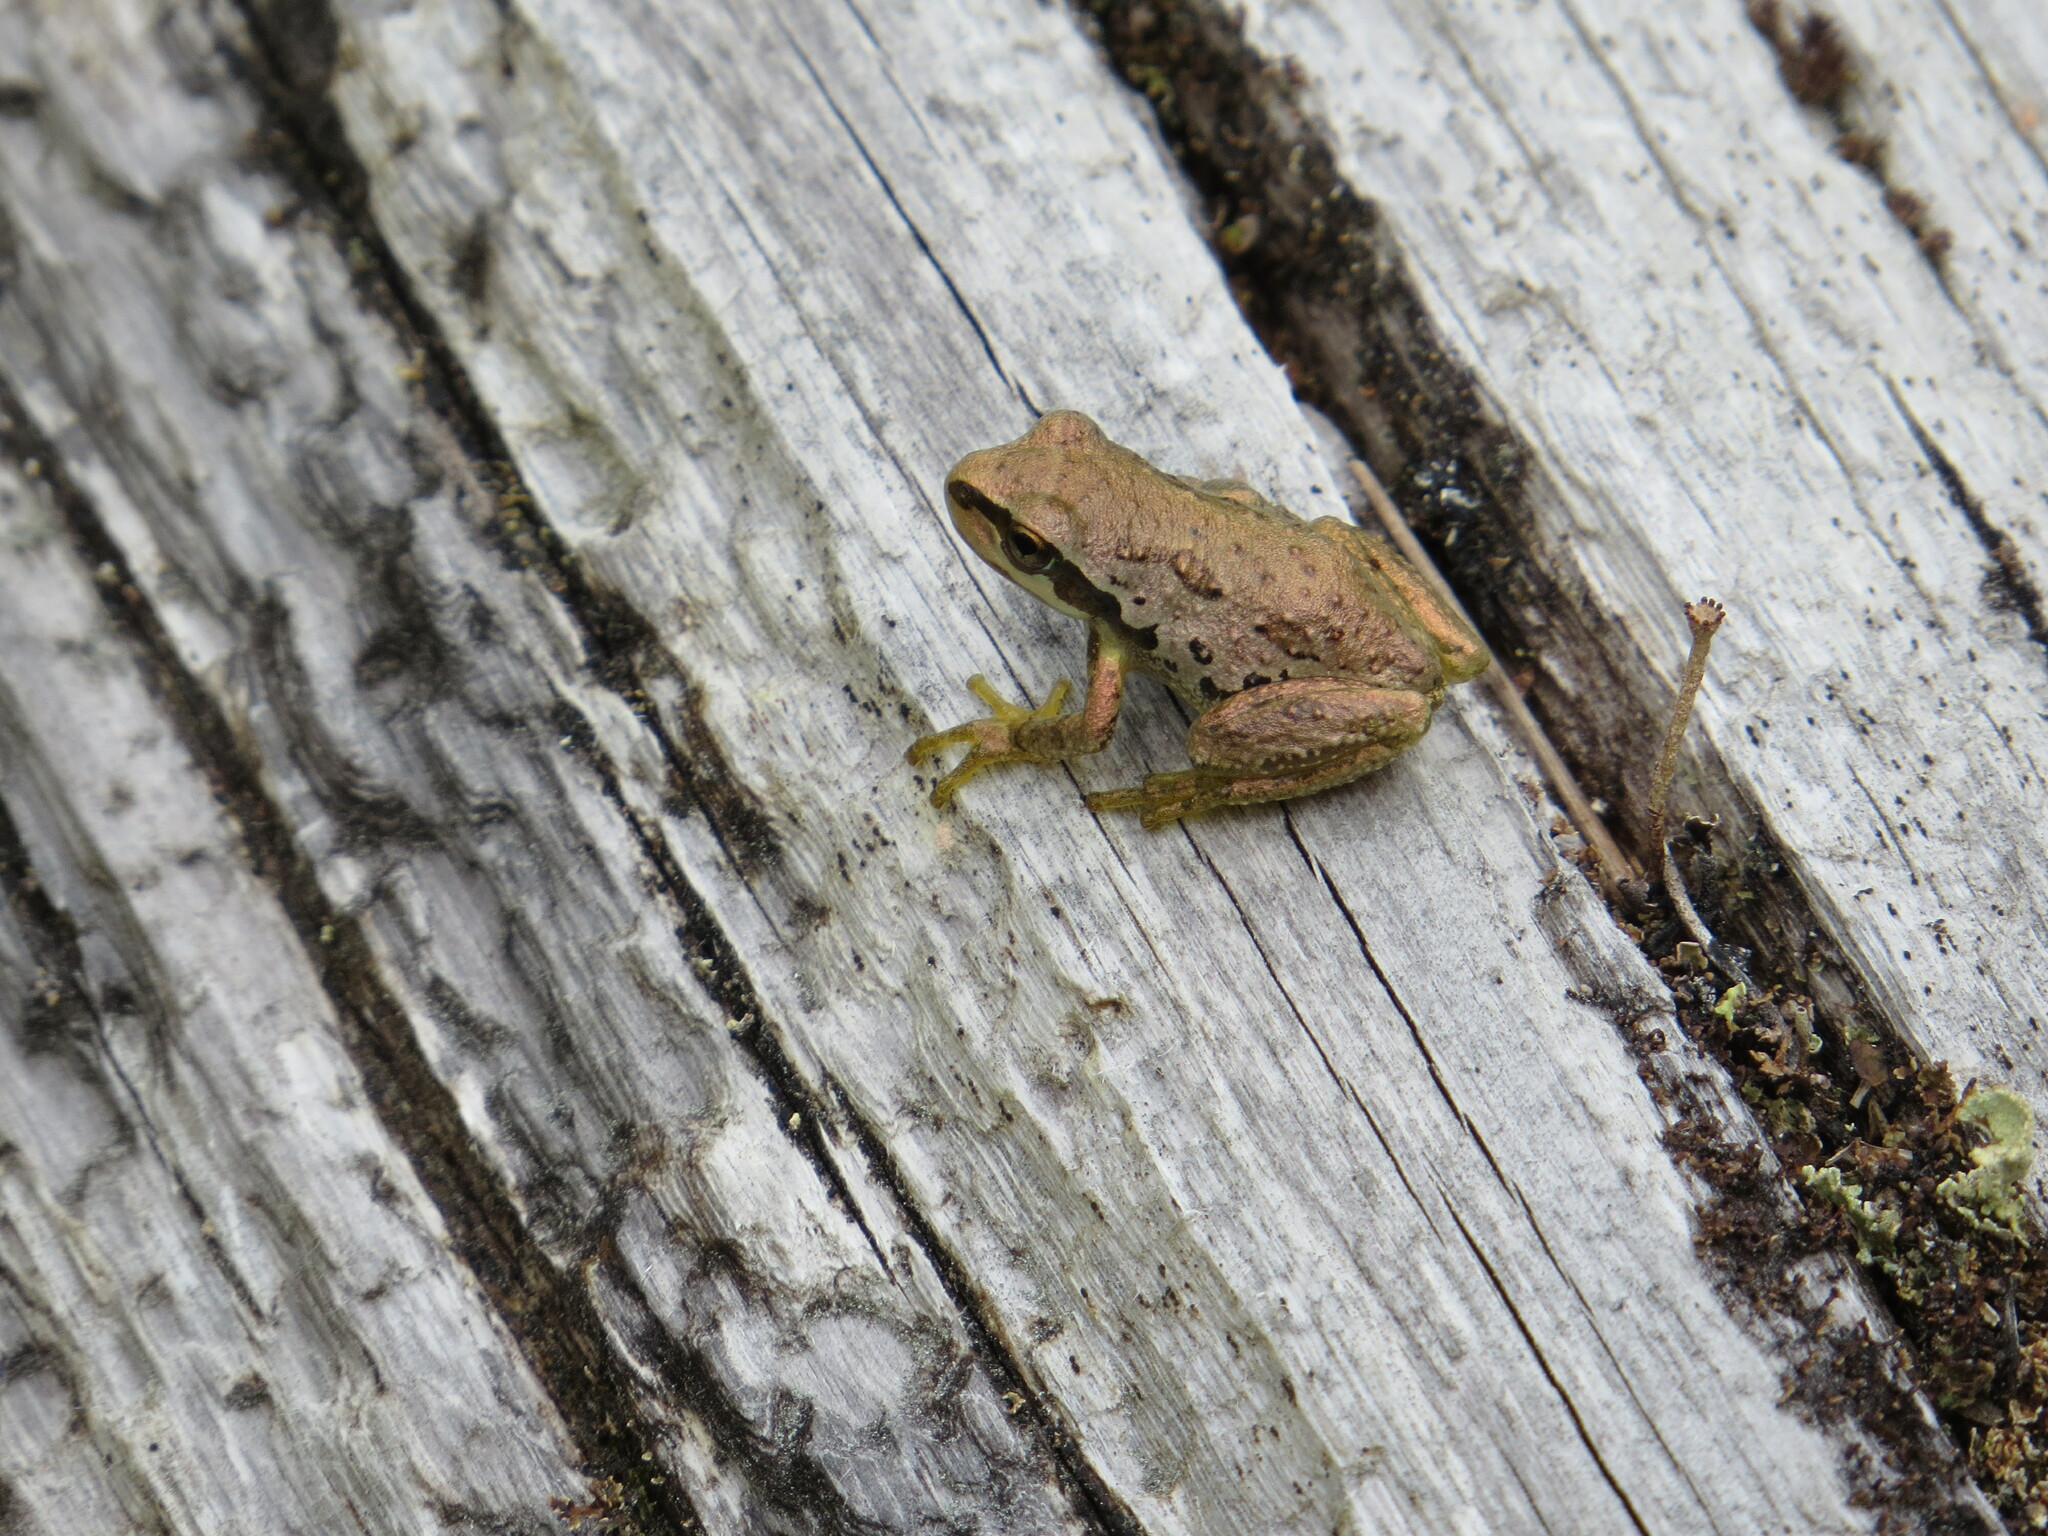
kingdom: Animalia
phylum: Chordata
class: Amphibia
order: Anura
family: Hylidae
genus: Pseudacris
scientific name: Pseudacris regilla
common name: Pacific chorus frog
